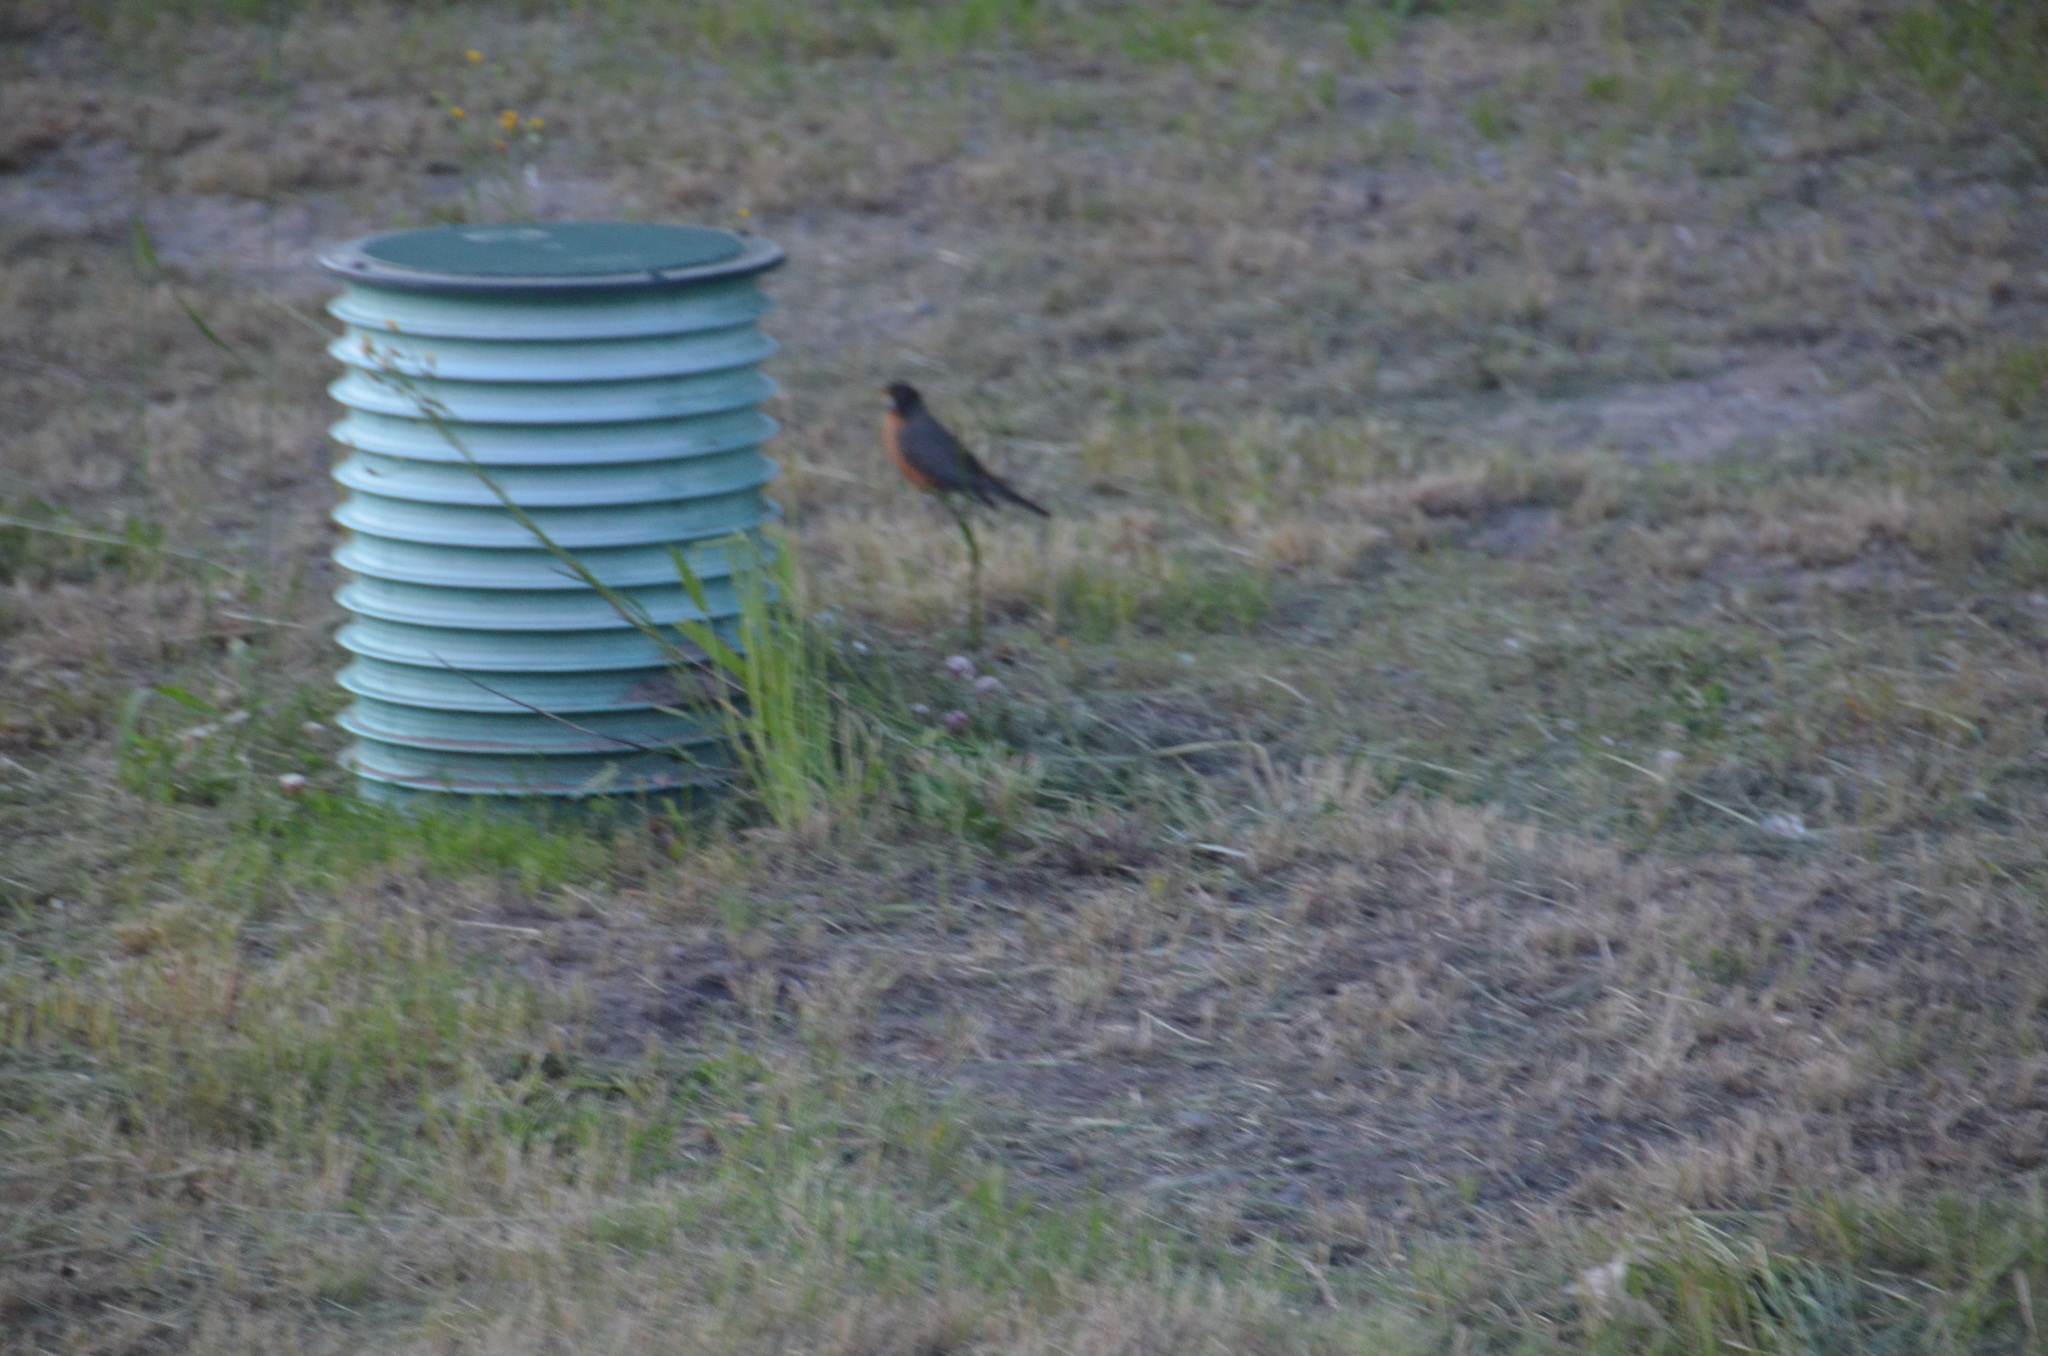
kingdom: Animalia
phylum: Chordata
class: Aves
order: Passeriformes
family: Turdidae
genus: Turdus
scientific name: Turdus migratorius
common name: American robin
